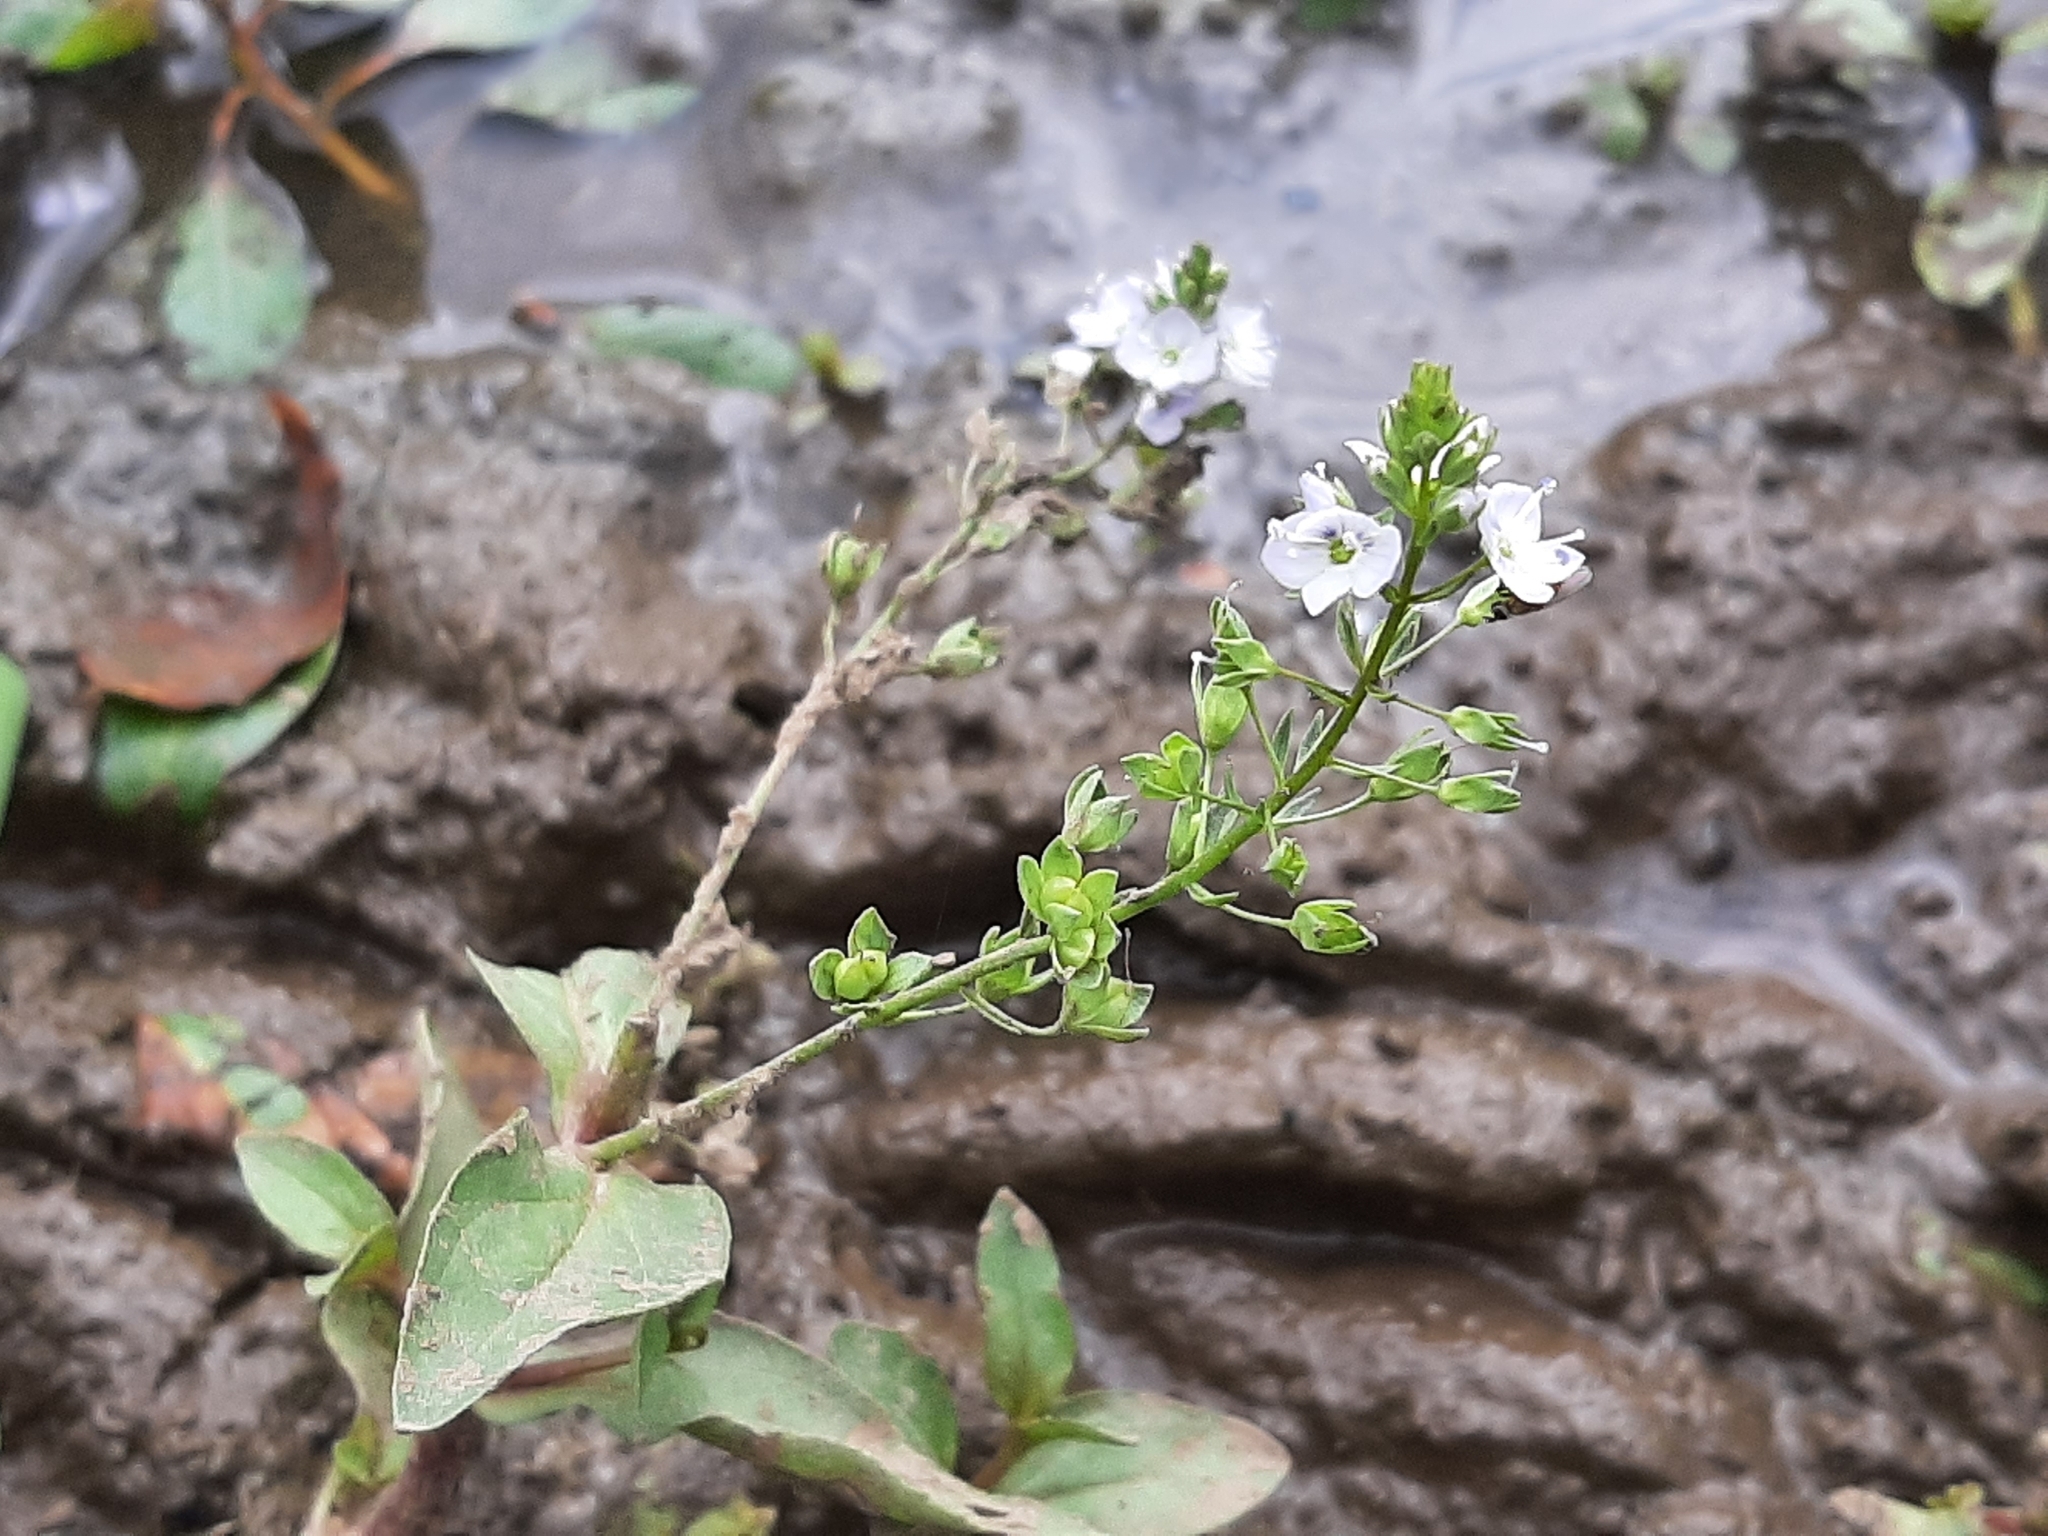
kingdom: Plantae
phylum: Tracheophyta
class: Magnoliopsida
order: Lamiales
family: Plantaginaceae
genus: Veronica
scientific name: Veronica anagallis-aquatica
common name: Water speedwell
